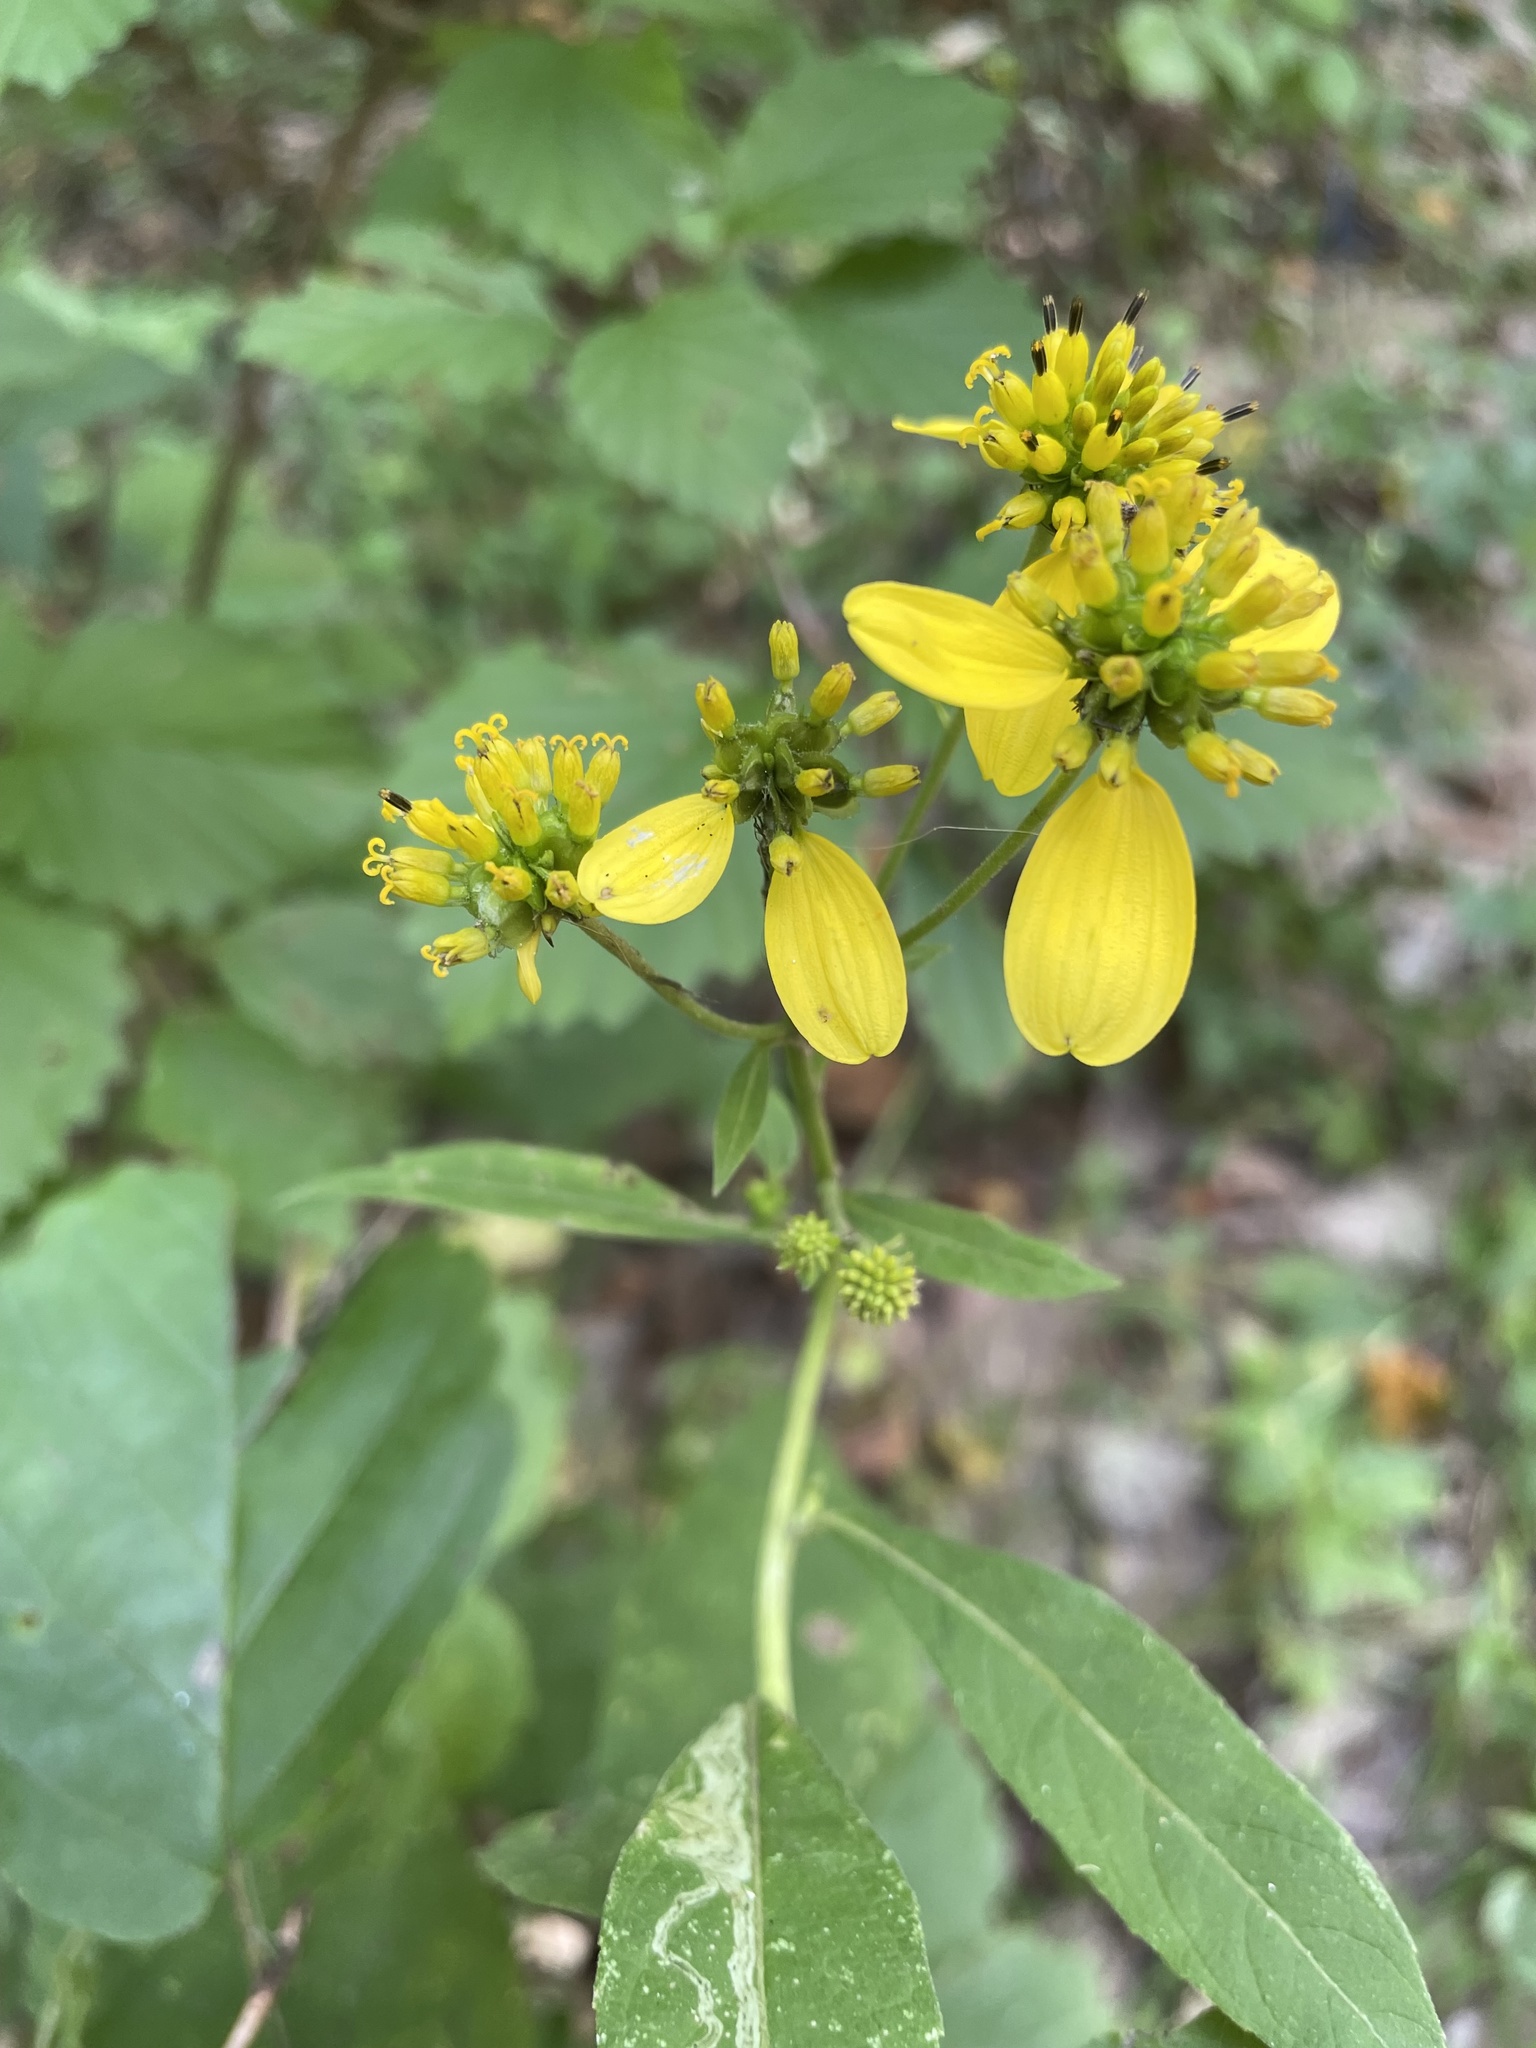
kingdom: Plantae
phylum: Tracheophyta
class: Magnoliopsida
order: Asterales
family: Asteraceae
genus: Verbesina
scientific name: Verbesina alternifolia
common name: Wingstem
